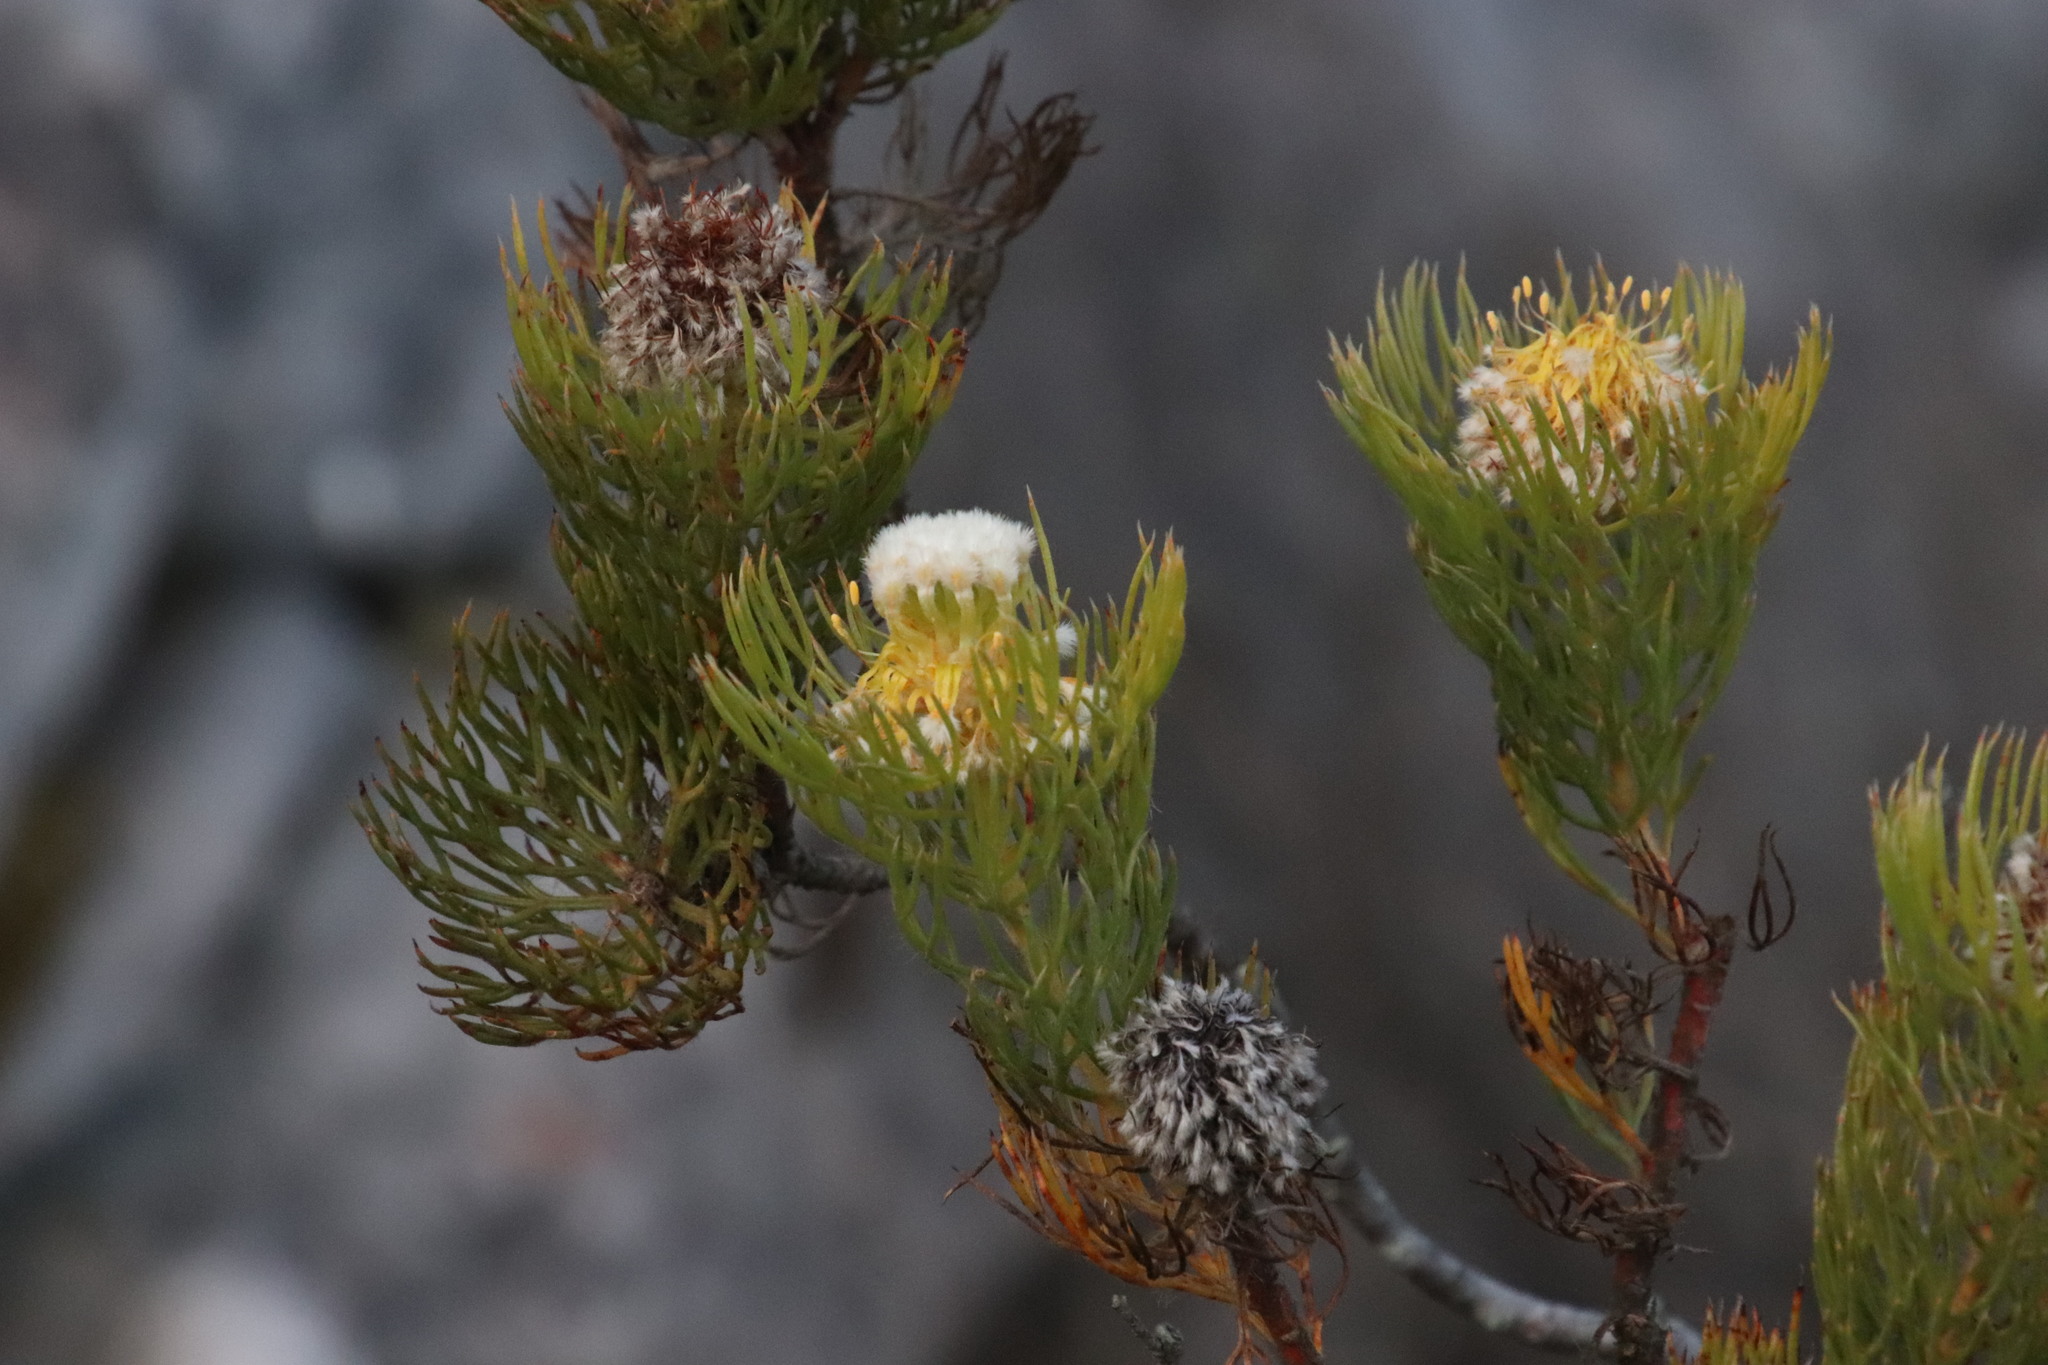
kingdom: Plantae
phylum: Tracheophyta
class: Magnoliopsida
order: Proteales
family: Proteaceae
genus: Serruria
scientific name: Serruria villosa
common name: Golden spiderhead
